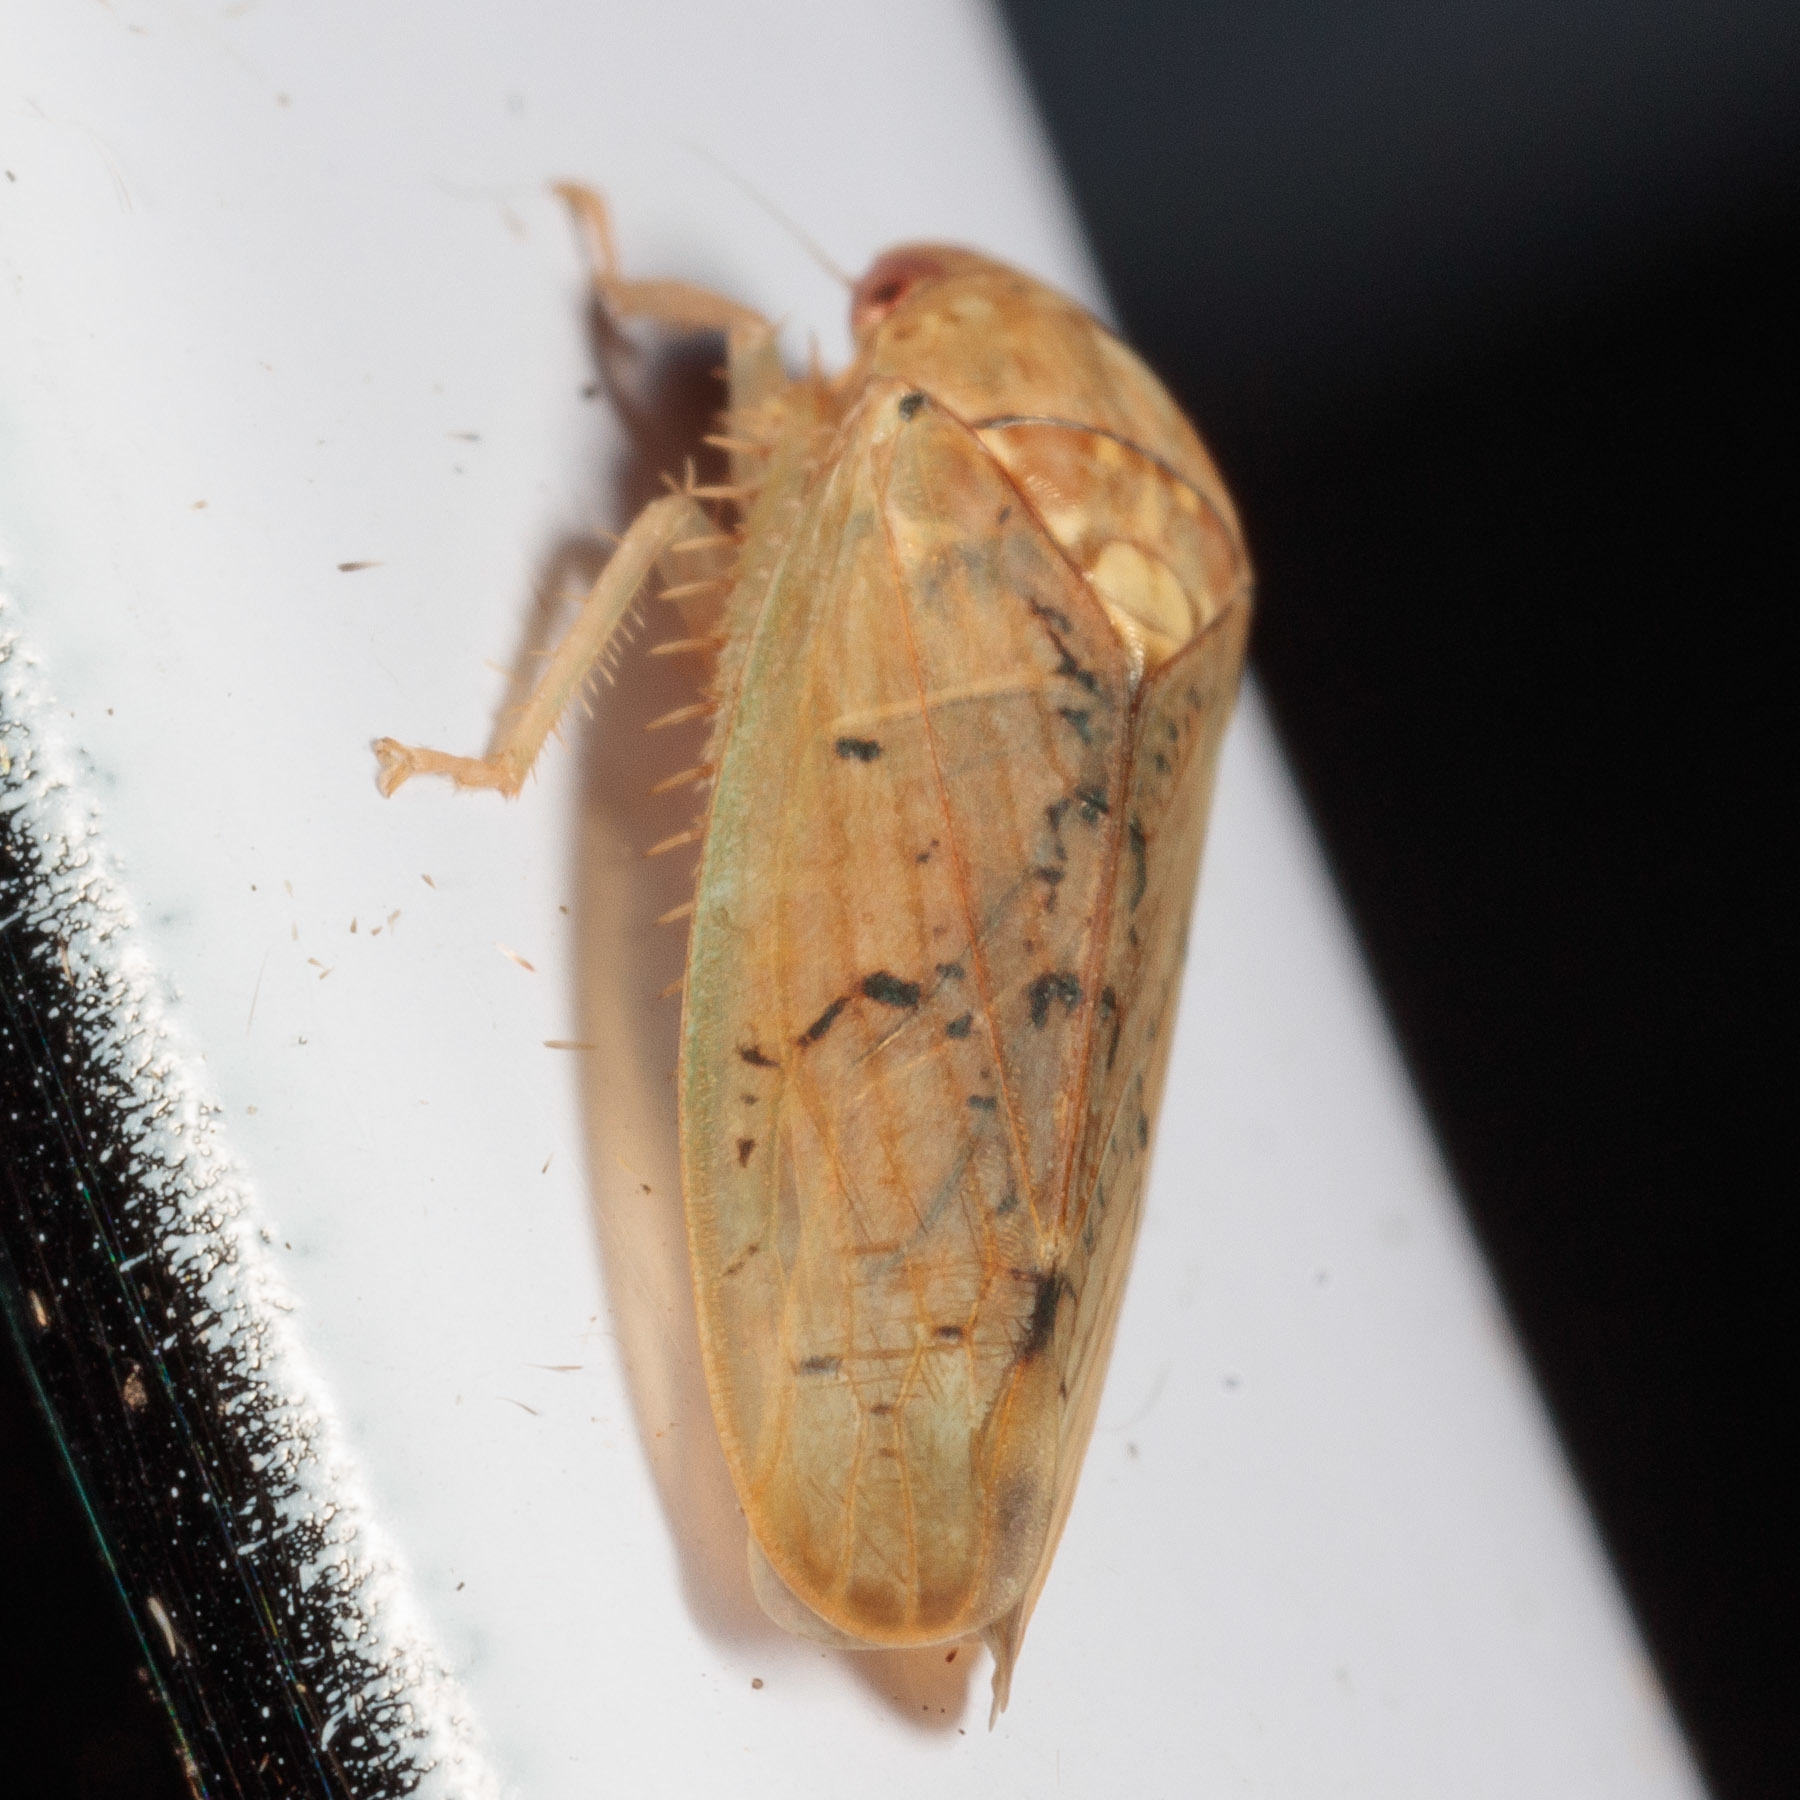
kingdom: Animalia
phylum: Arthropoda
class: Insecta
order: Hemiptera
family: Cicadellidae
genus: Ponana
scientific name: Ponana quadralaba
